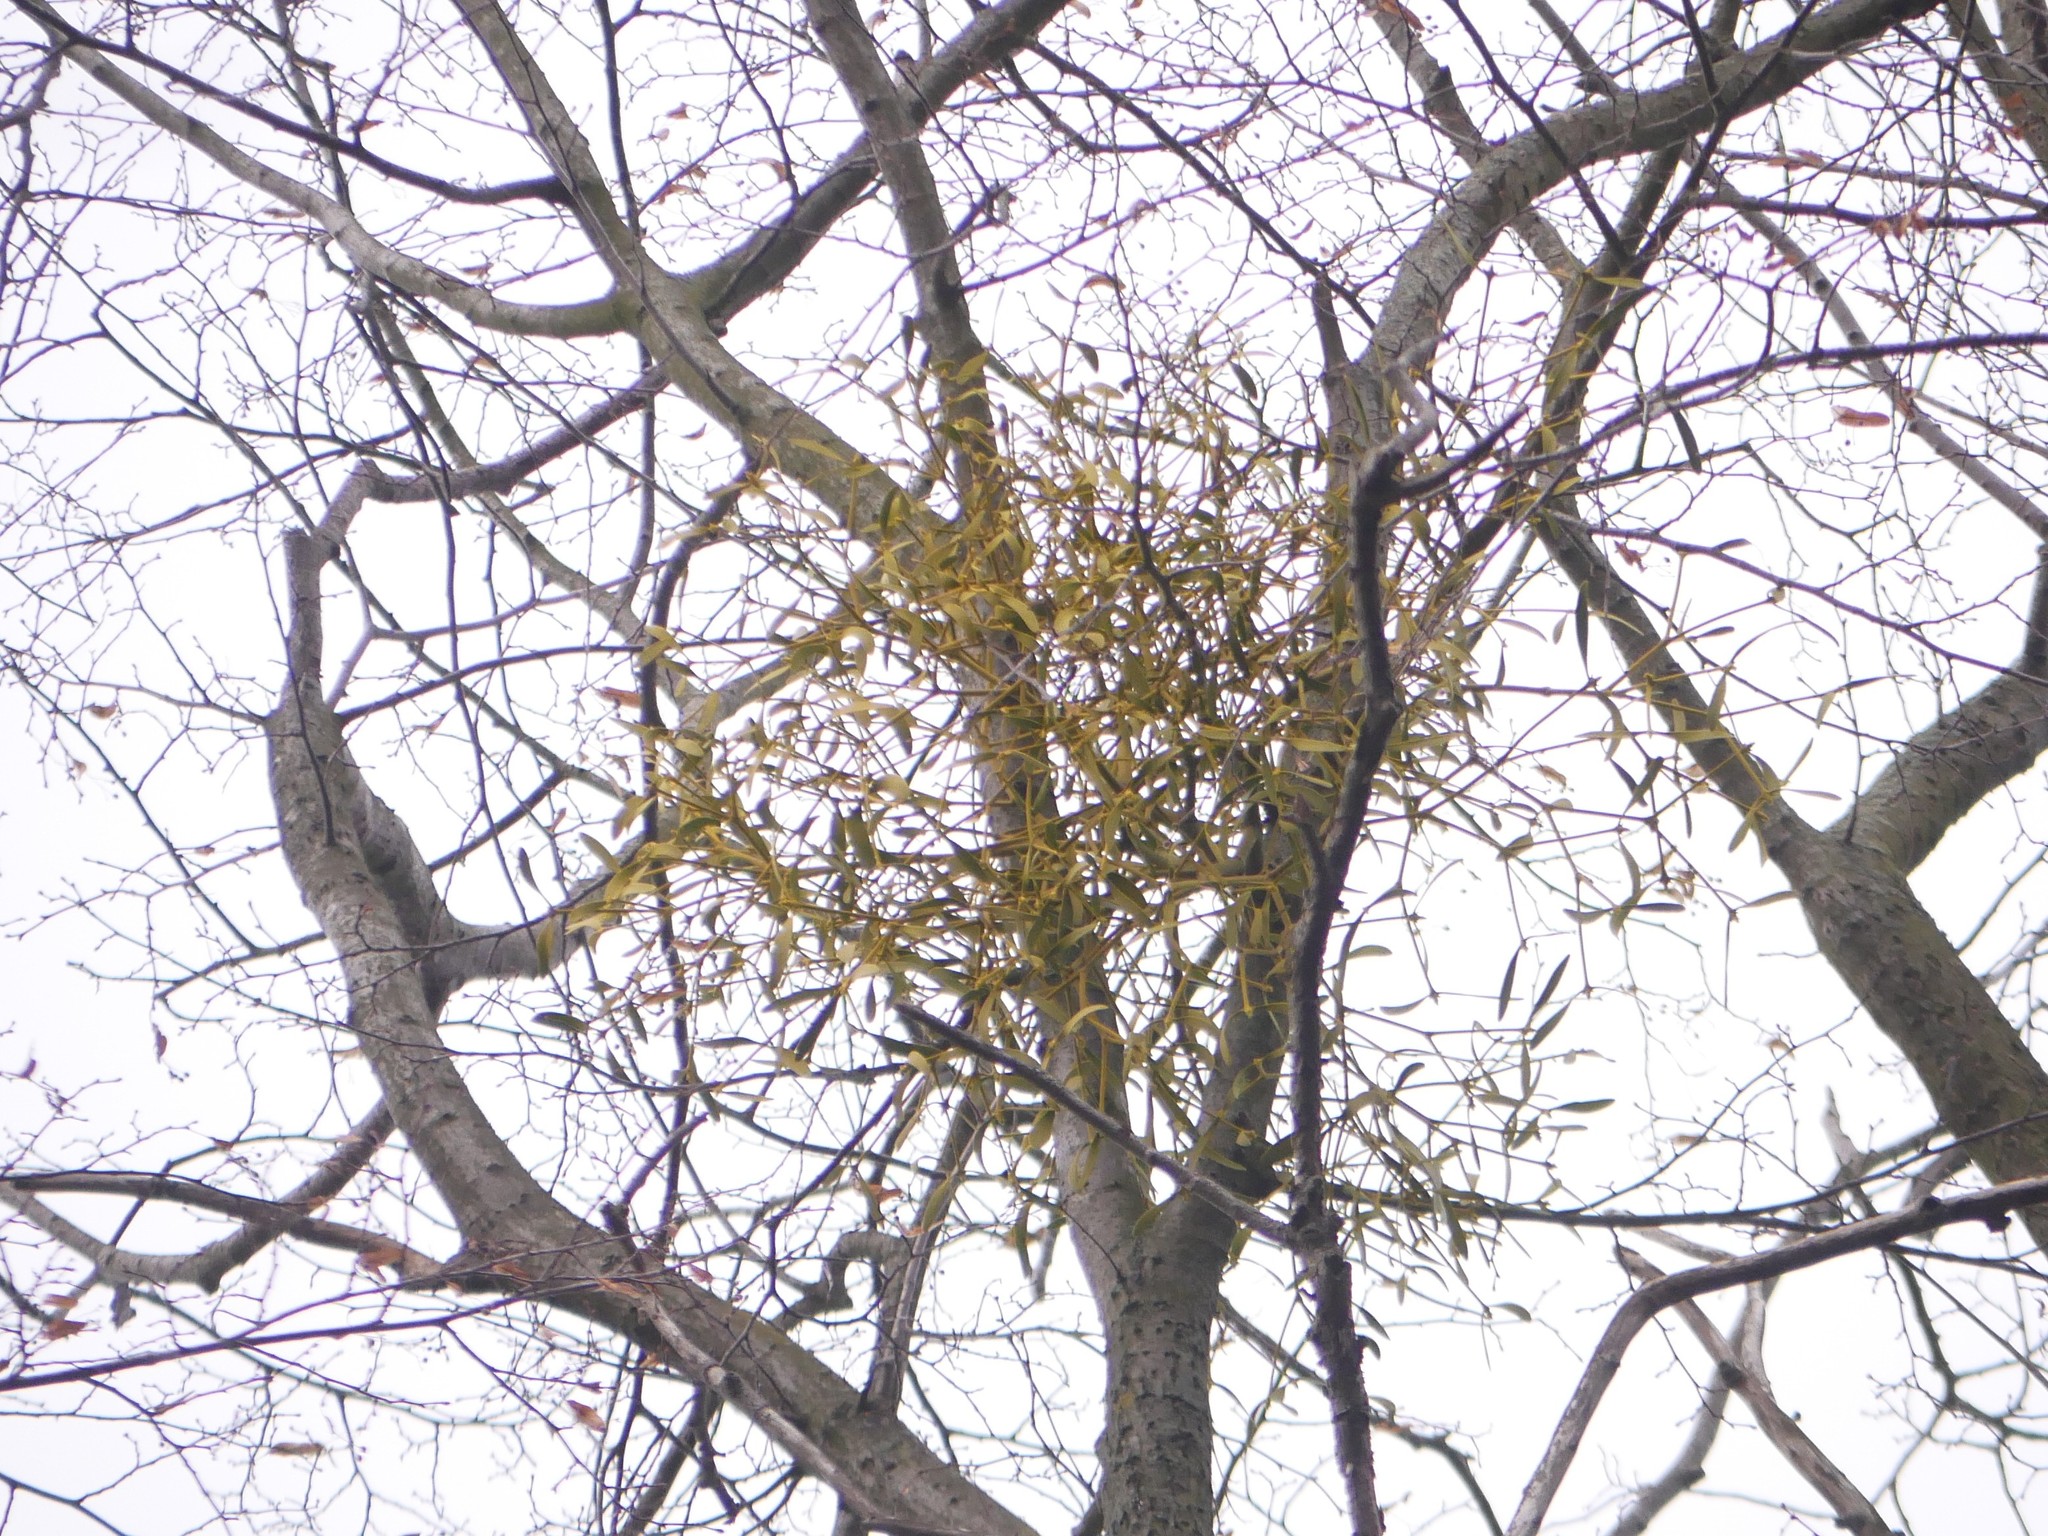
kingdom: Plantae
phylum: Tracheophyta
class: Magnoliopsida
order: Santalales
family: Viscaceae
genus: Viscum
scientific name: Viscum album
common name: Mistletoe
